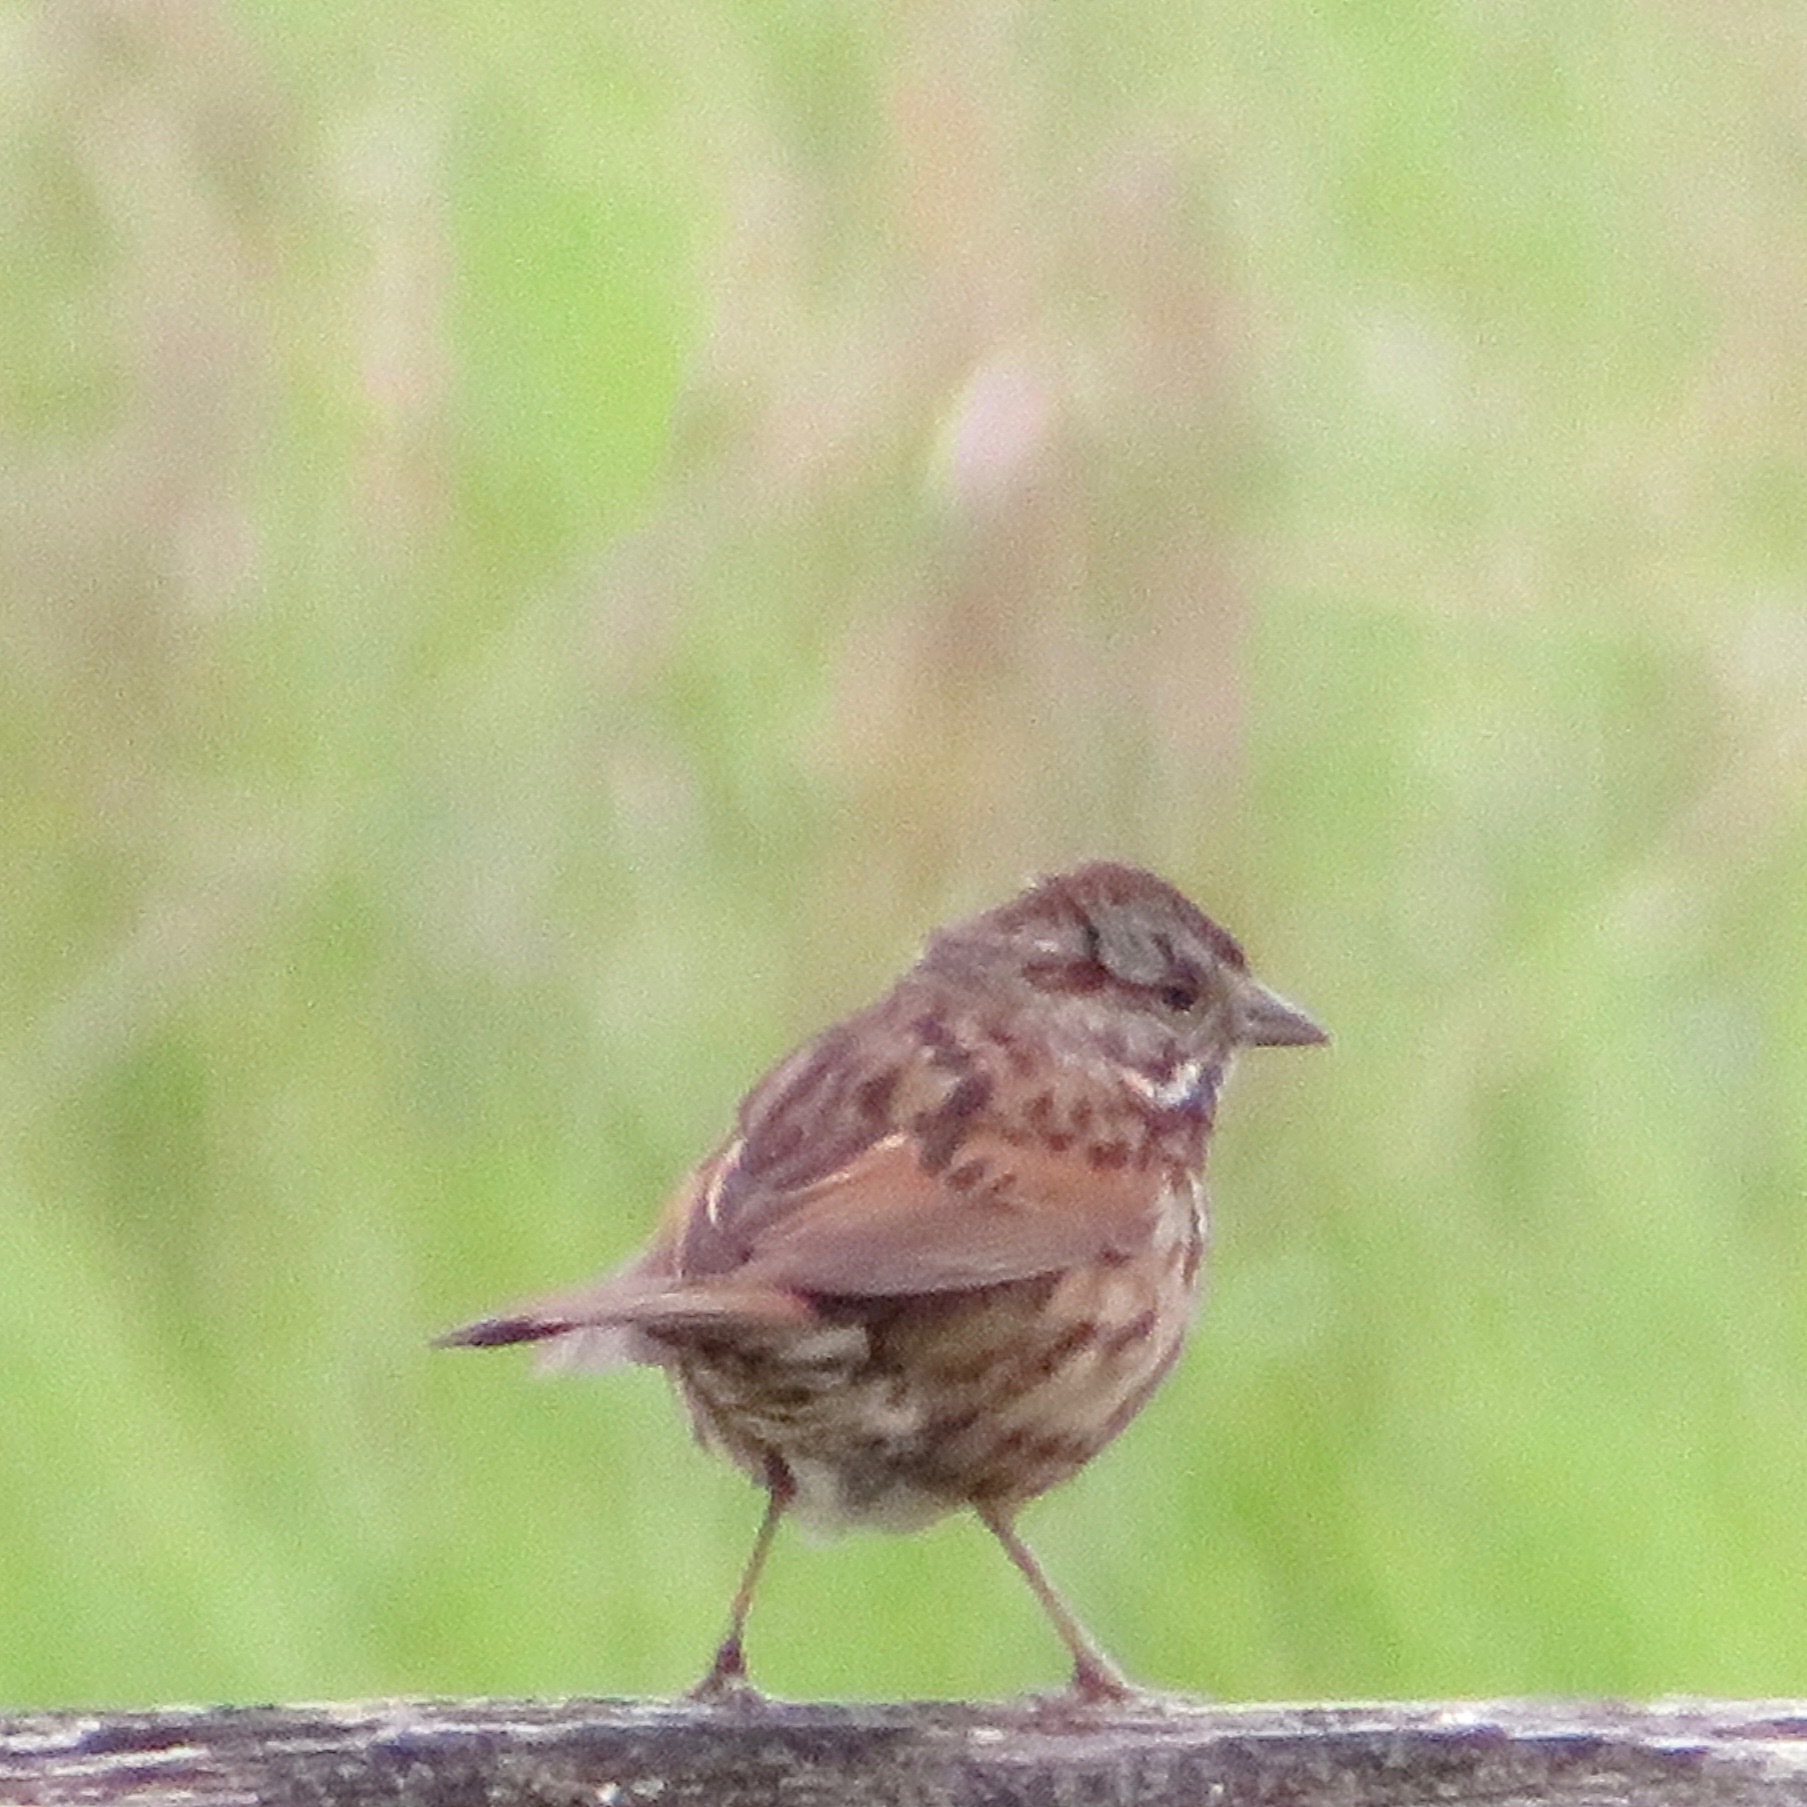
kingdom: Animalia
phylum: Chordata
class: Aves
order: Passeriformes
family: Passerellidae
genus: Melospiza
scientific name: Melospiza melodia
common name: Song sparrow
